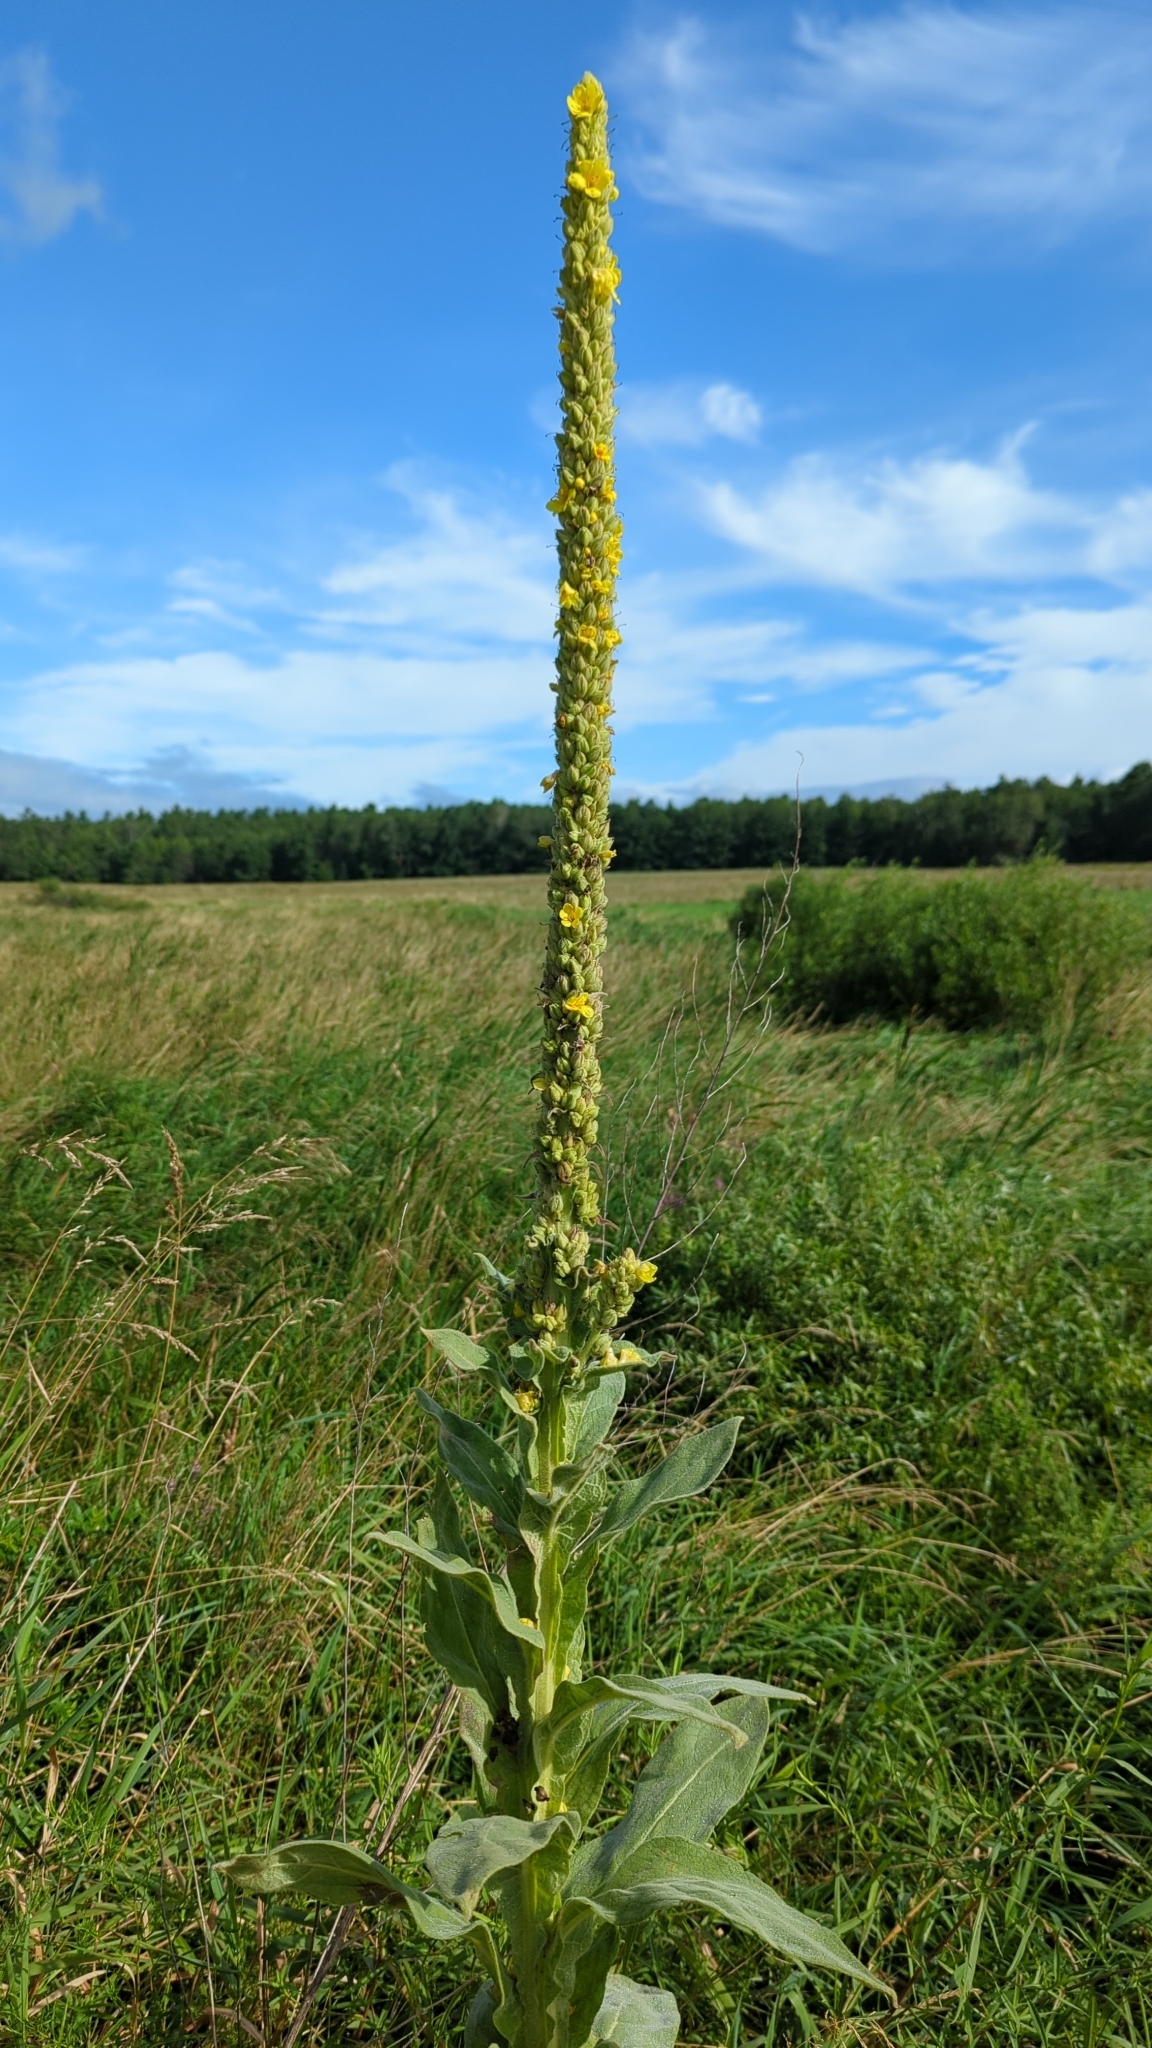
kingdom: Plantae
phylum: Tracheophyta
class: Magnoliopsida
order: Lamiales
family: Scrophulariaceae
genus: Verbascum
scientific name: Verbascum thapsus
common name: Common mullein
